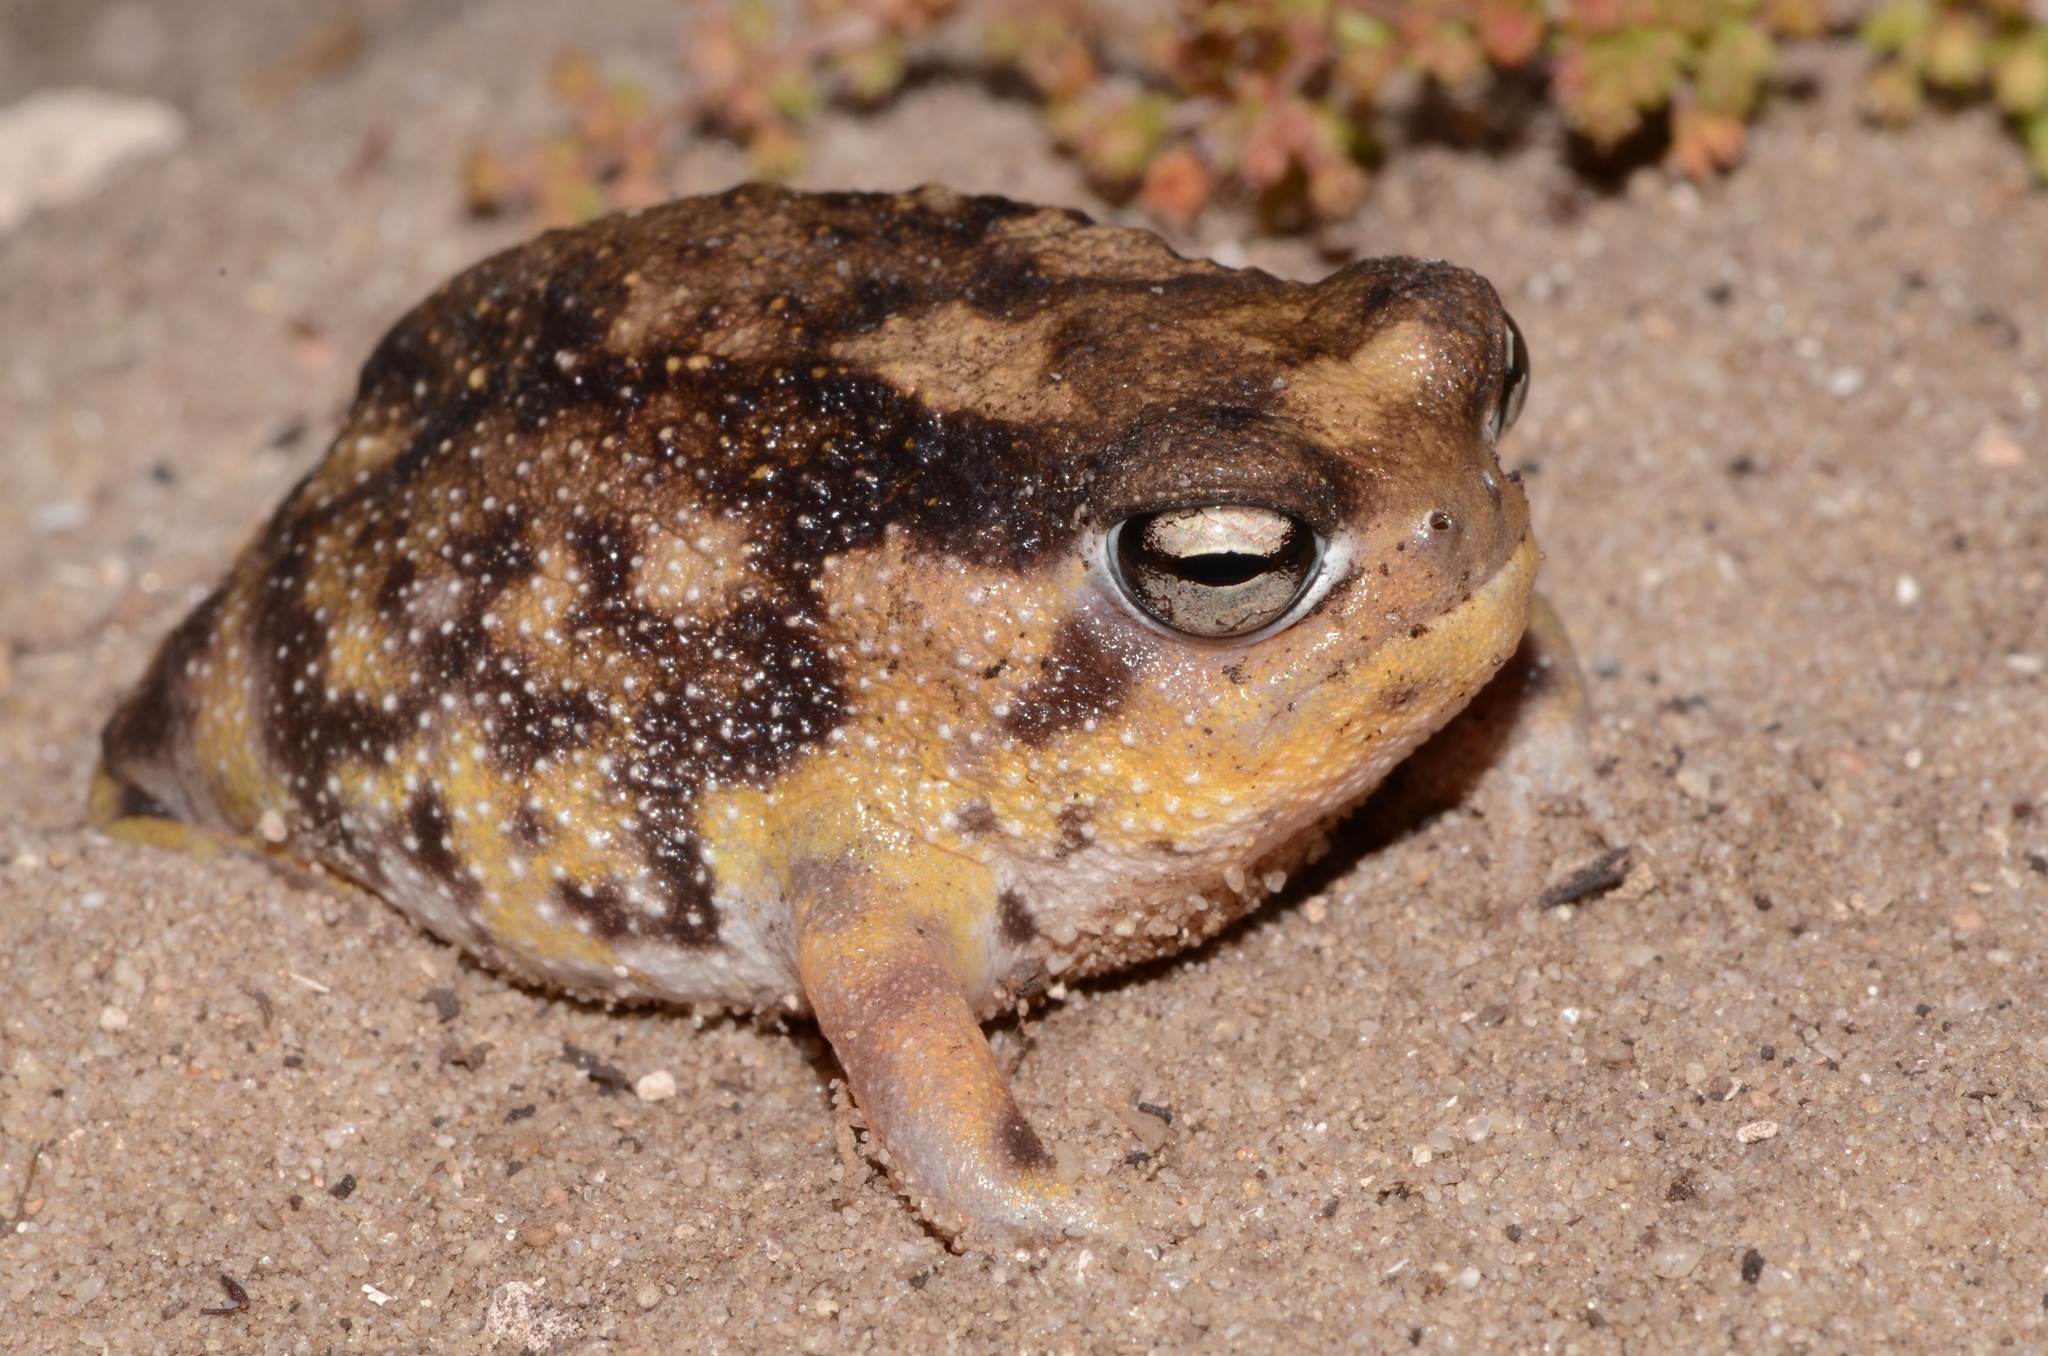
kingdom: Animalia
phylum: Chordata
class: Amphibia
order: Anura
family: Brevicipitidae
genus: Breviceps
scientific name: Breviceps namaquensis
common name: Namaqua rain frog
